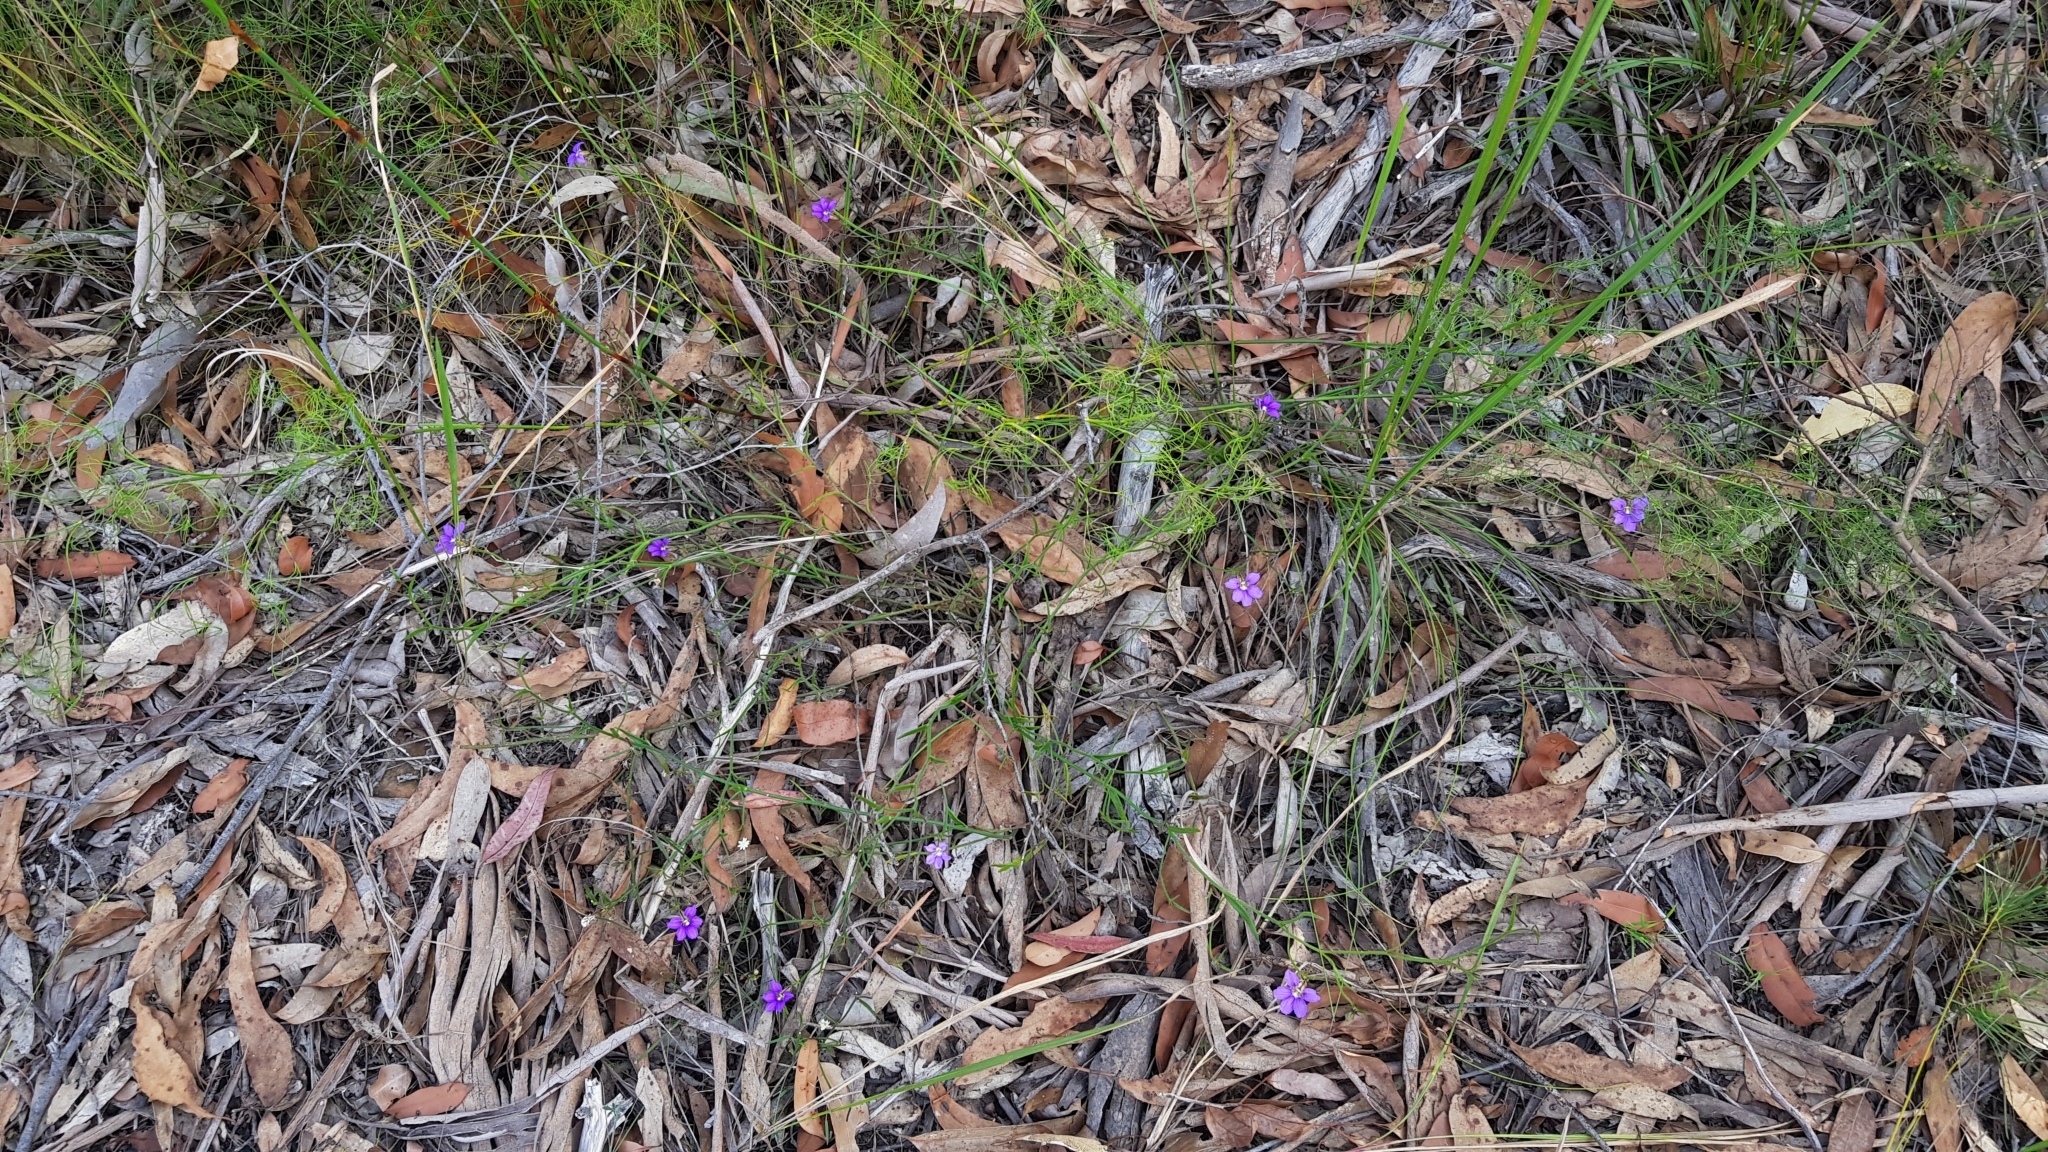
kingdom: Plantae
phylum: Tracheophyta
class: Magnoliopsida
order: Asterales
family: Goodeniaceae
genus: Scaevola
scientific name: Scaevola ramosissima
